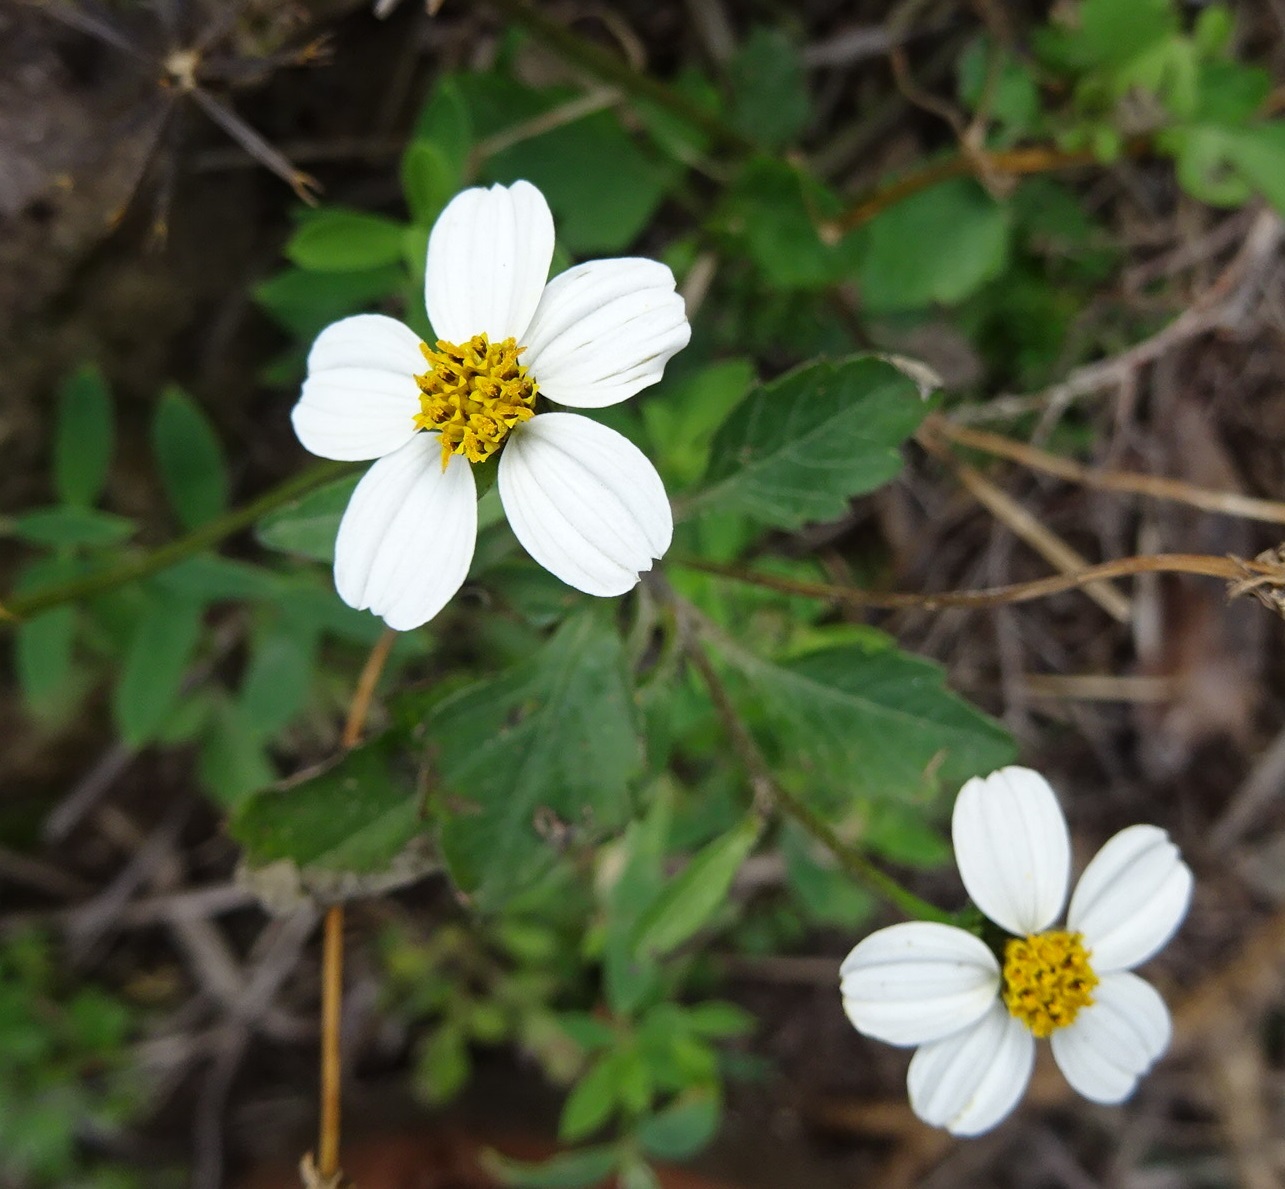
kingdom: Plantae
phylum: Tracheophyta
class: Magnoliopsida
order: Asterales
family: Asteraceae
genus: Bidens
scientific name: Bidens pilosa
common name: Black-jack
